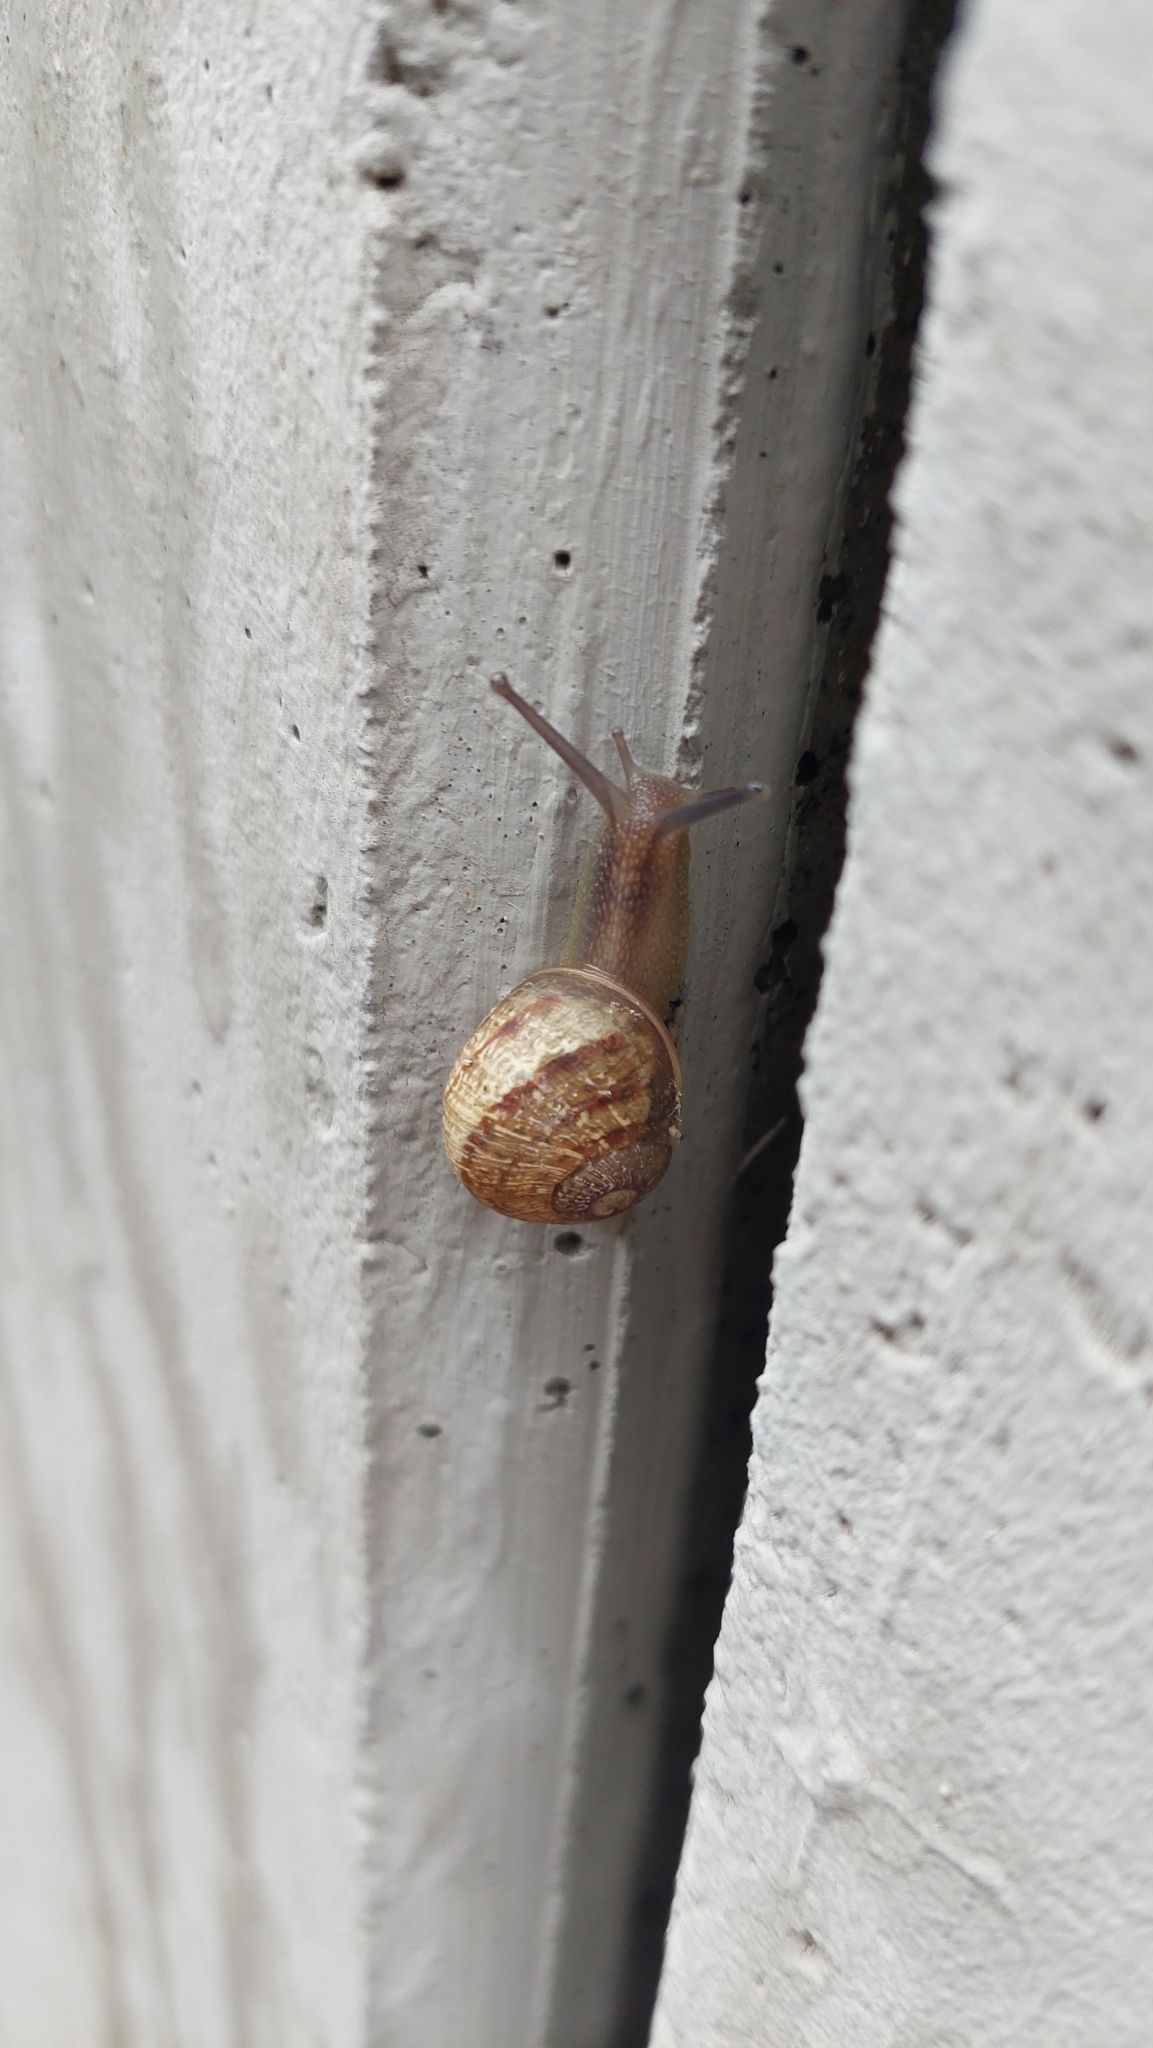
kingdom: Animalia
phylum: Mollusca
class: Gastropoda
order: Stylommatophora
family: Helicidae
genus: Cornu
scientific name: Cornu aspersum
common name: Brown garden snail
